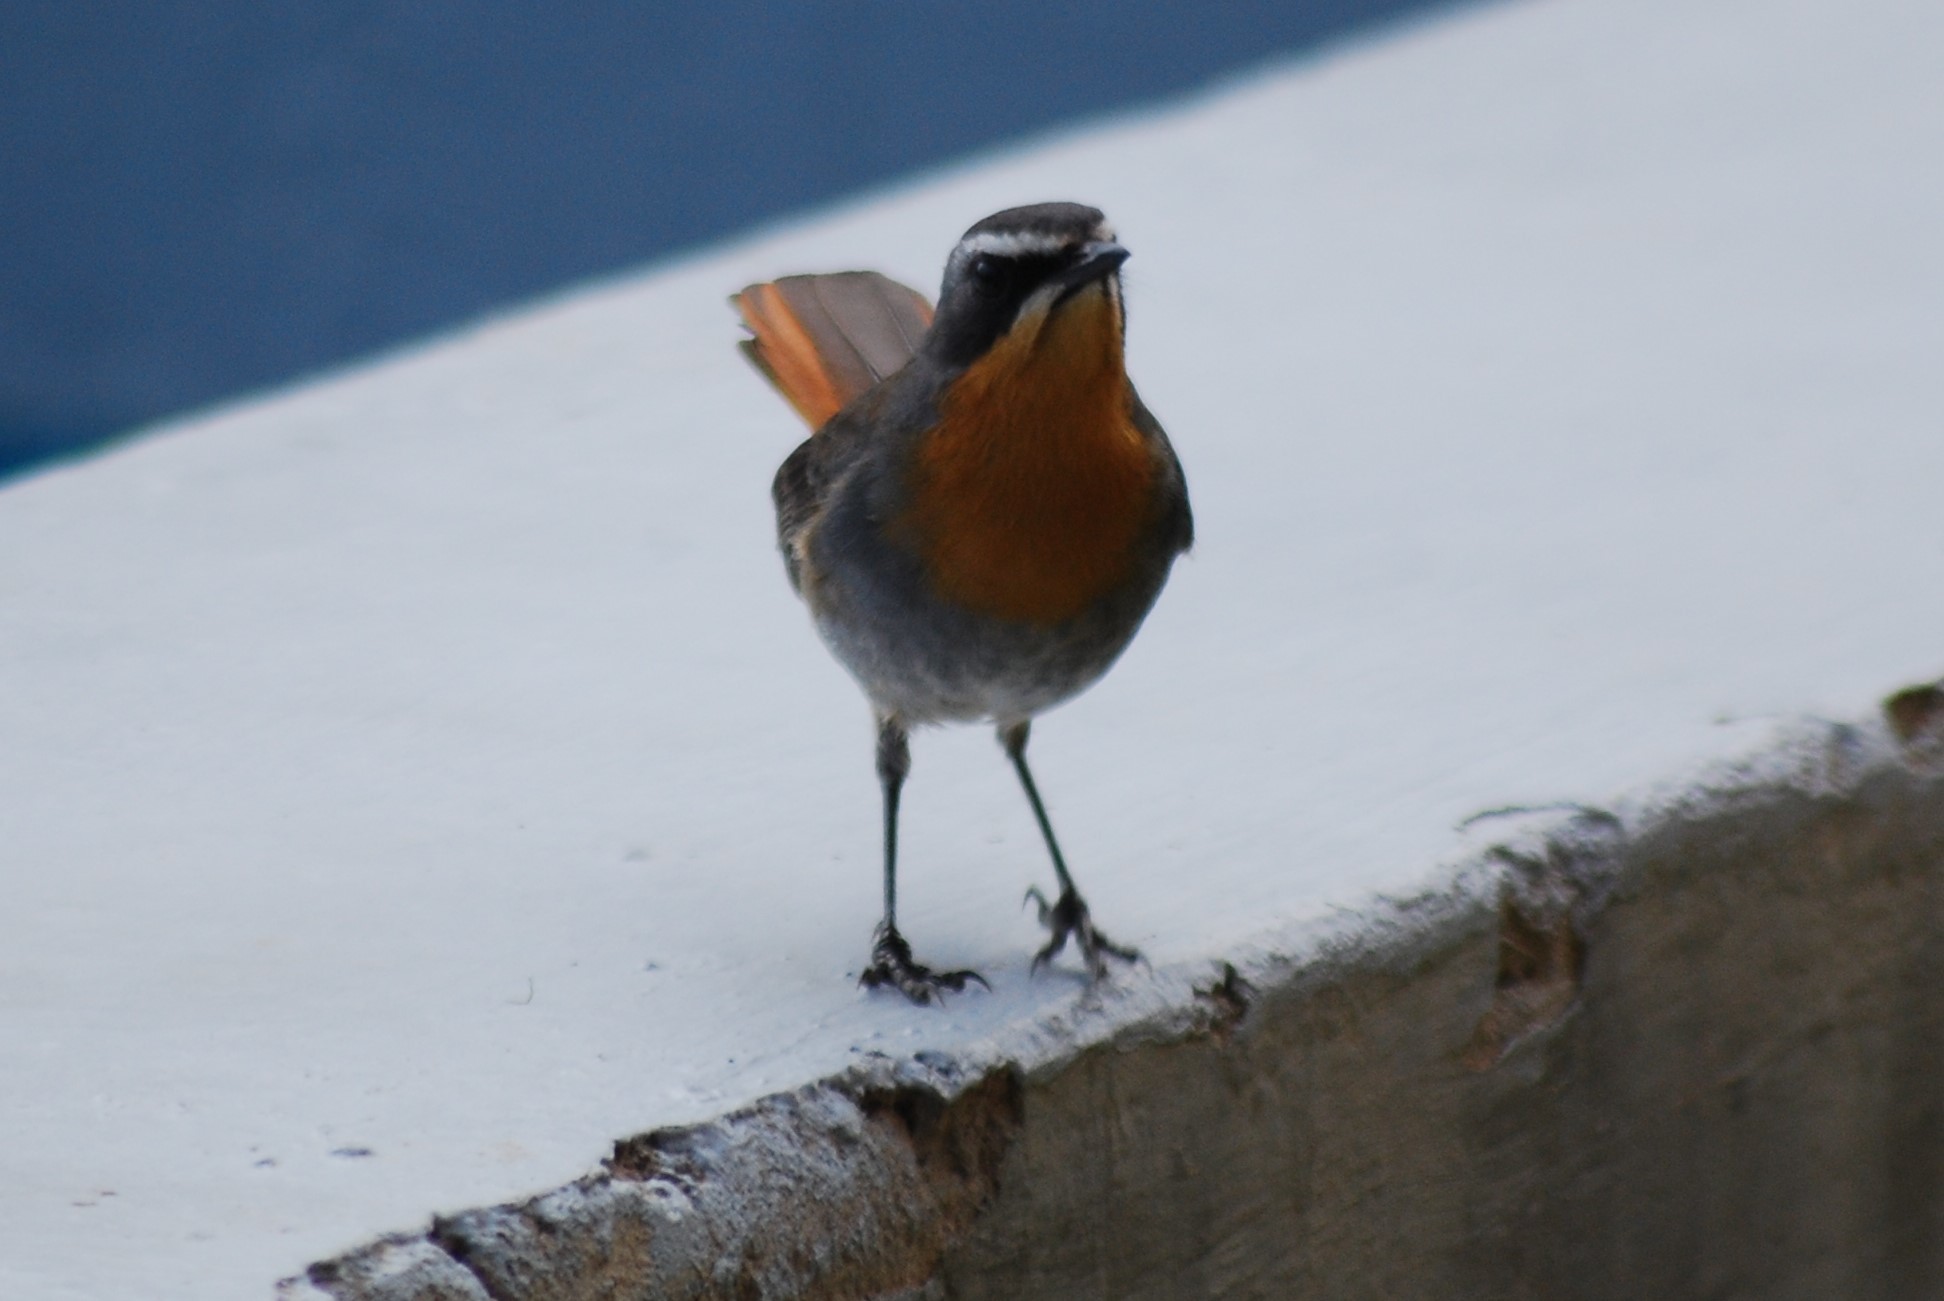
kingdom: Animalia
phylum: Chordata
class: Aves
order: Passeriformes
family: Muscicapidae
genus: Cossypha
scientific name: Cossypha caffra
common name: Cape robin-chat
